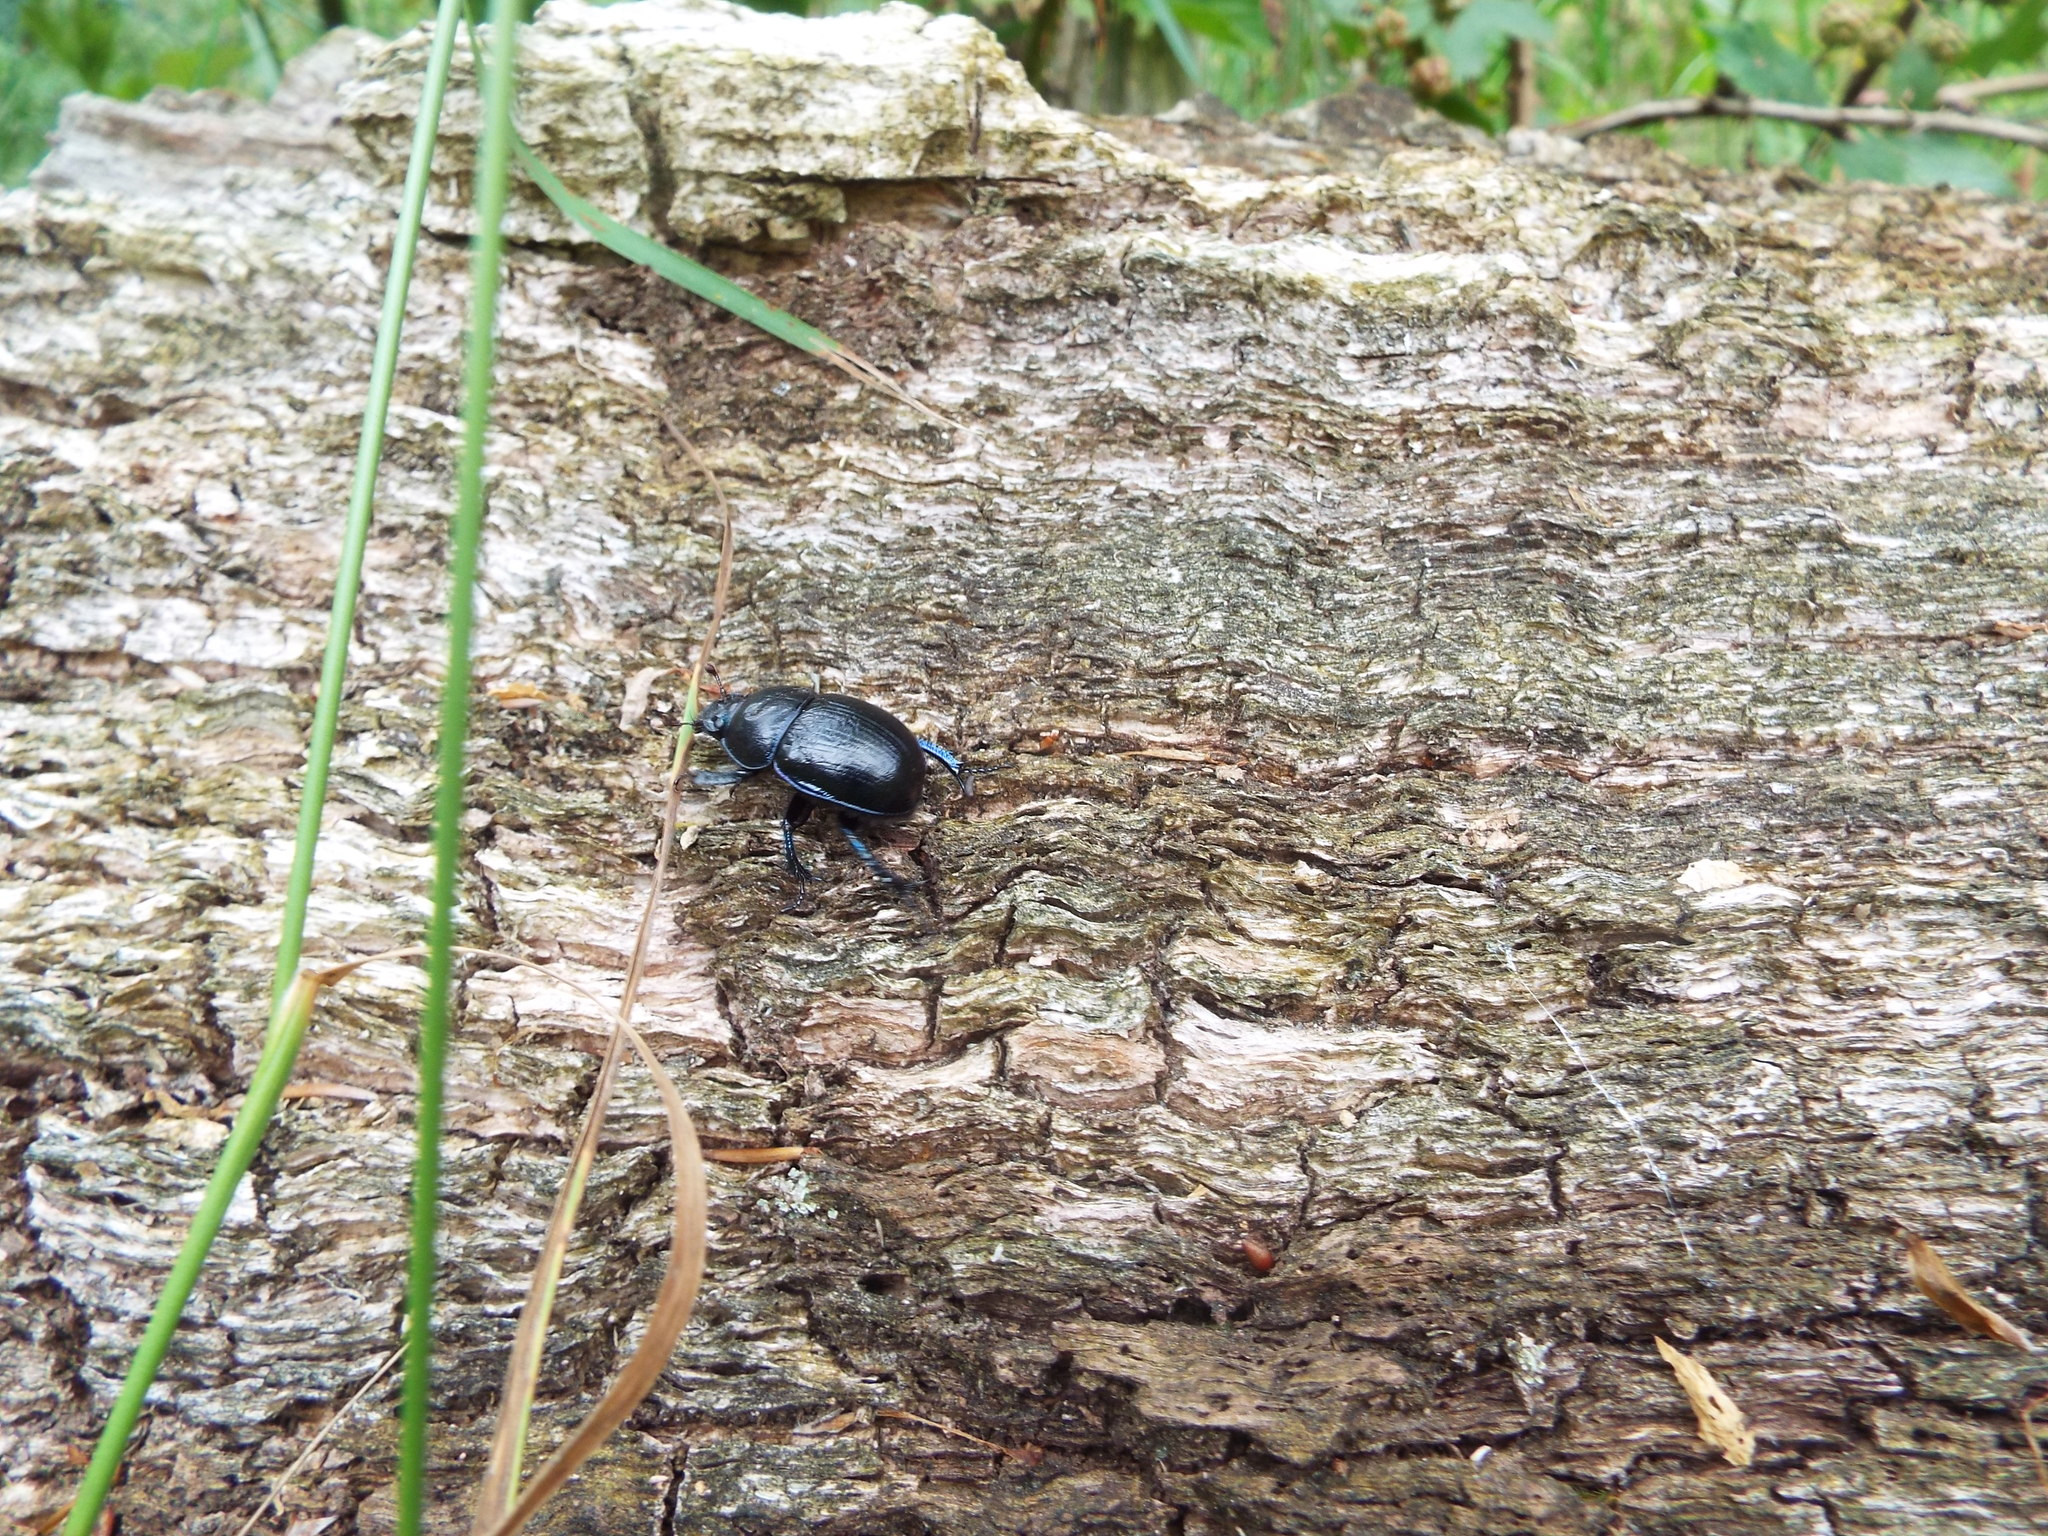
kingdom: Animalia
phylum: Arthropoda
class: Insecta
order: Coleoptera
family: Geotrupidae
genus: Anoplotrupes
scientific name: Anoplotrupes stercorosus
